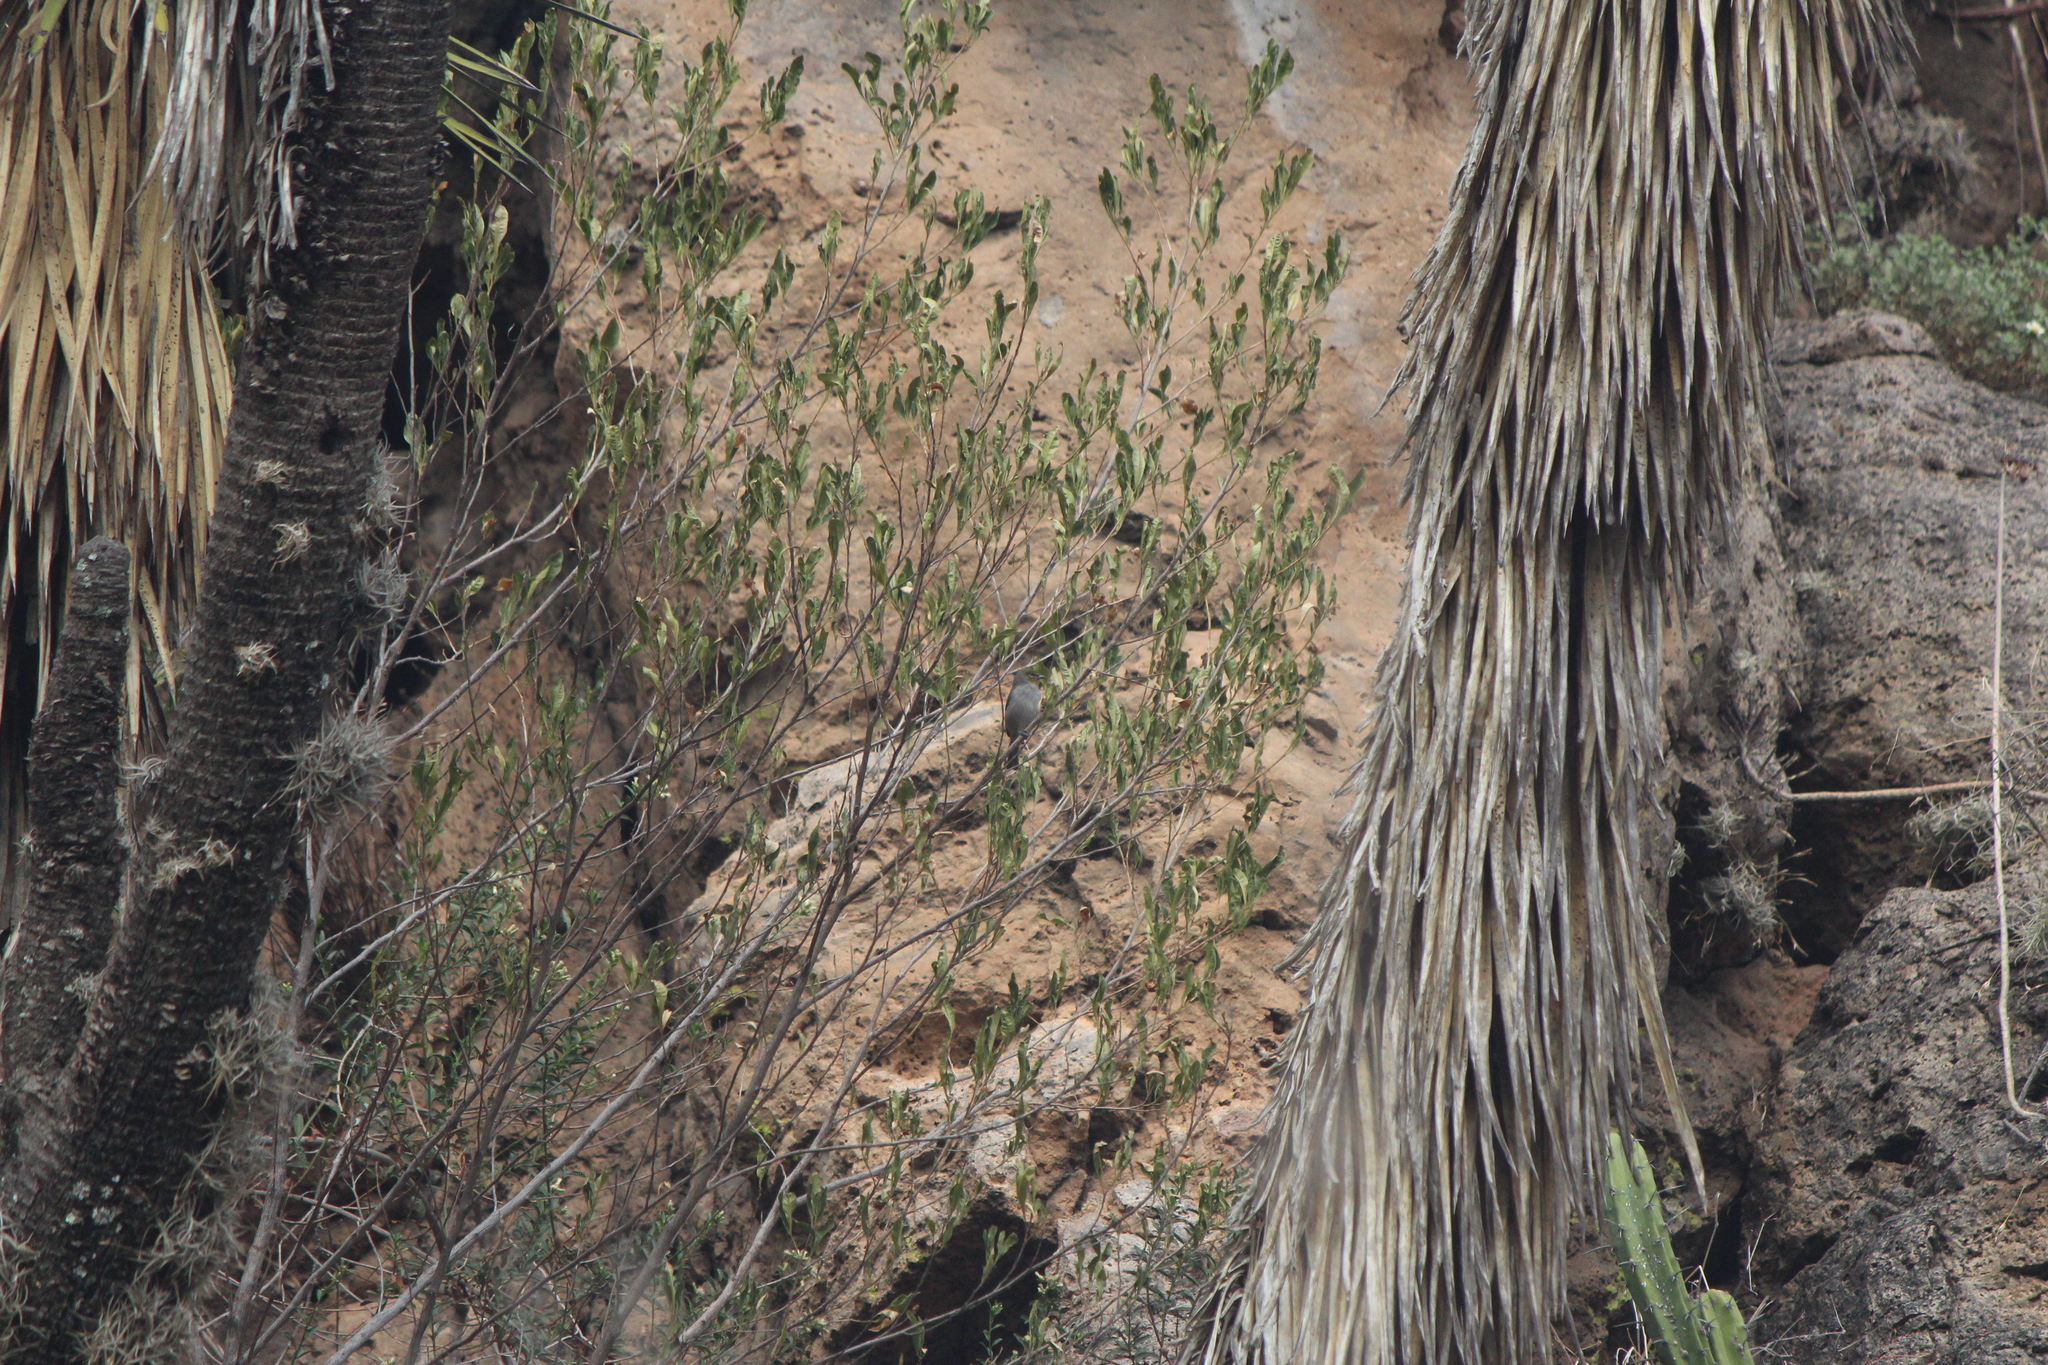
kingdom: Animalia
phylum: Chordata
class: Aves
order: Passeriformes
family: Remizidae
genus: Auriparus
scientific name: Auriparus flaviceps
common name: Verdin
